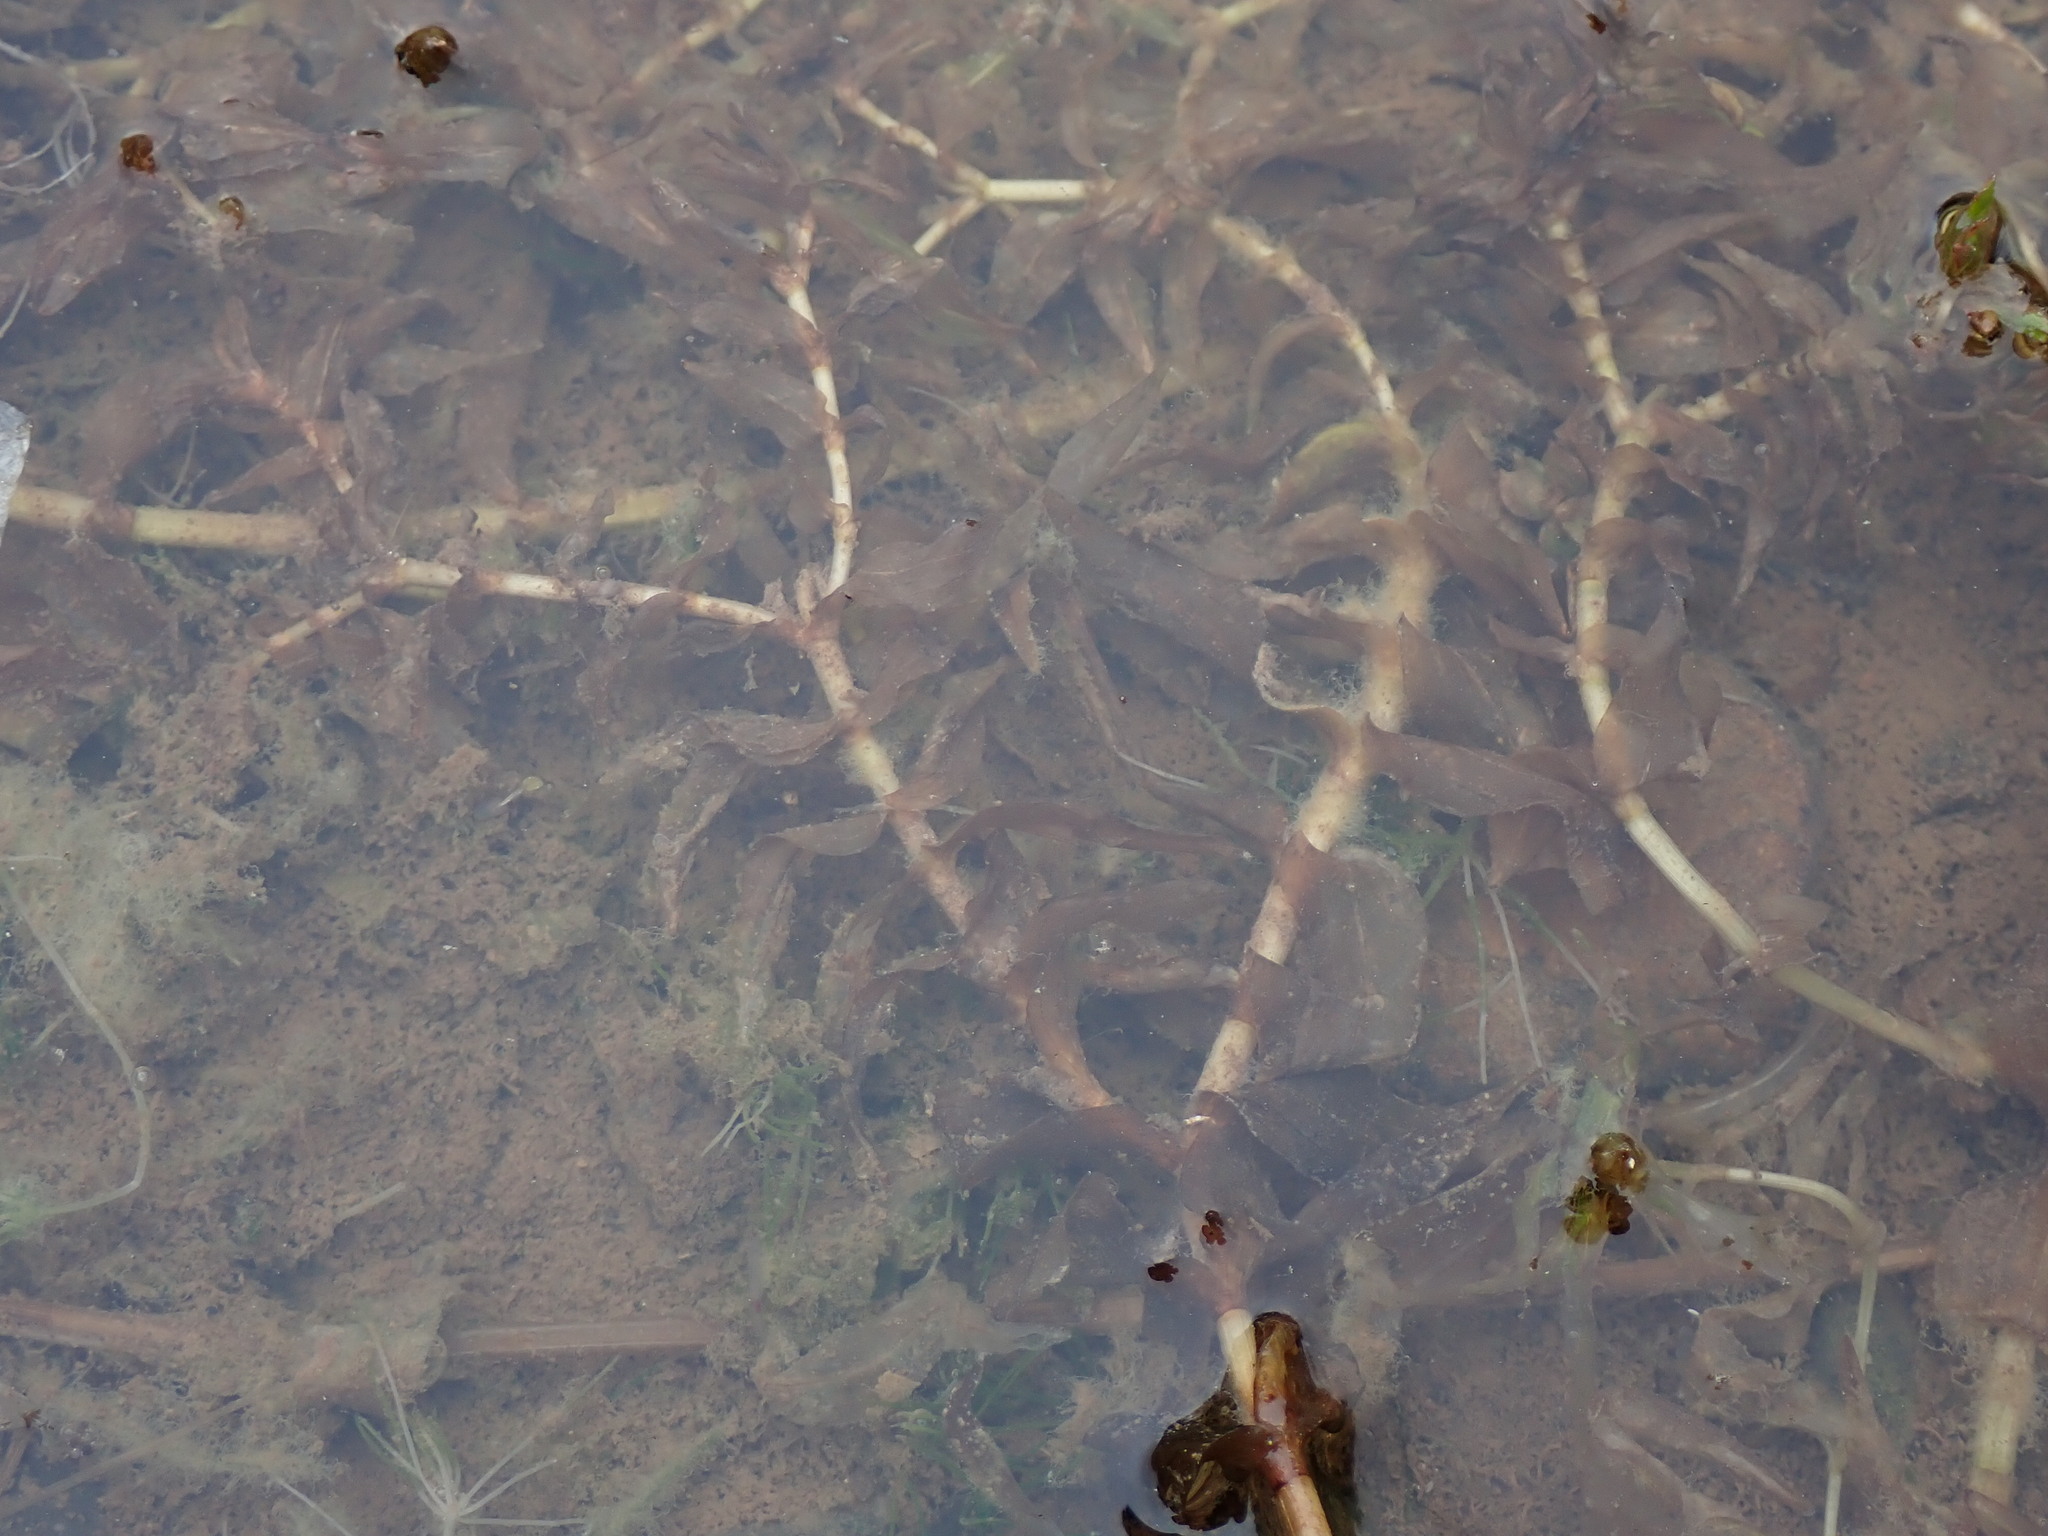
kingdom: Plantae
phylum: Tracheophyta
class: Liliopsida
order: Alismatales
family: Potamogetonaceae
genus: Groenlandia
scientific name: Groenlandia densa
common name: Opposite-leaved pondweed
